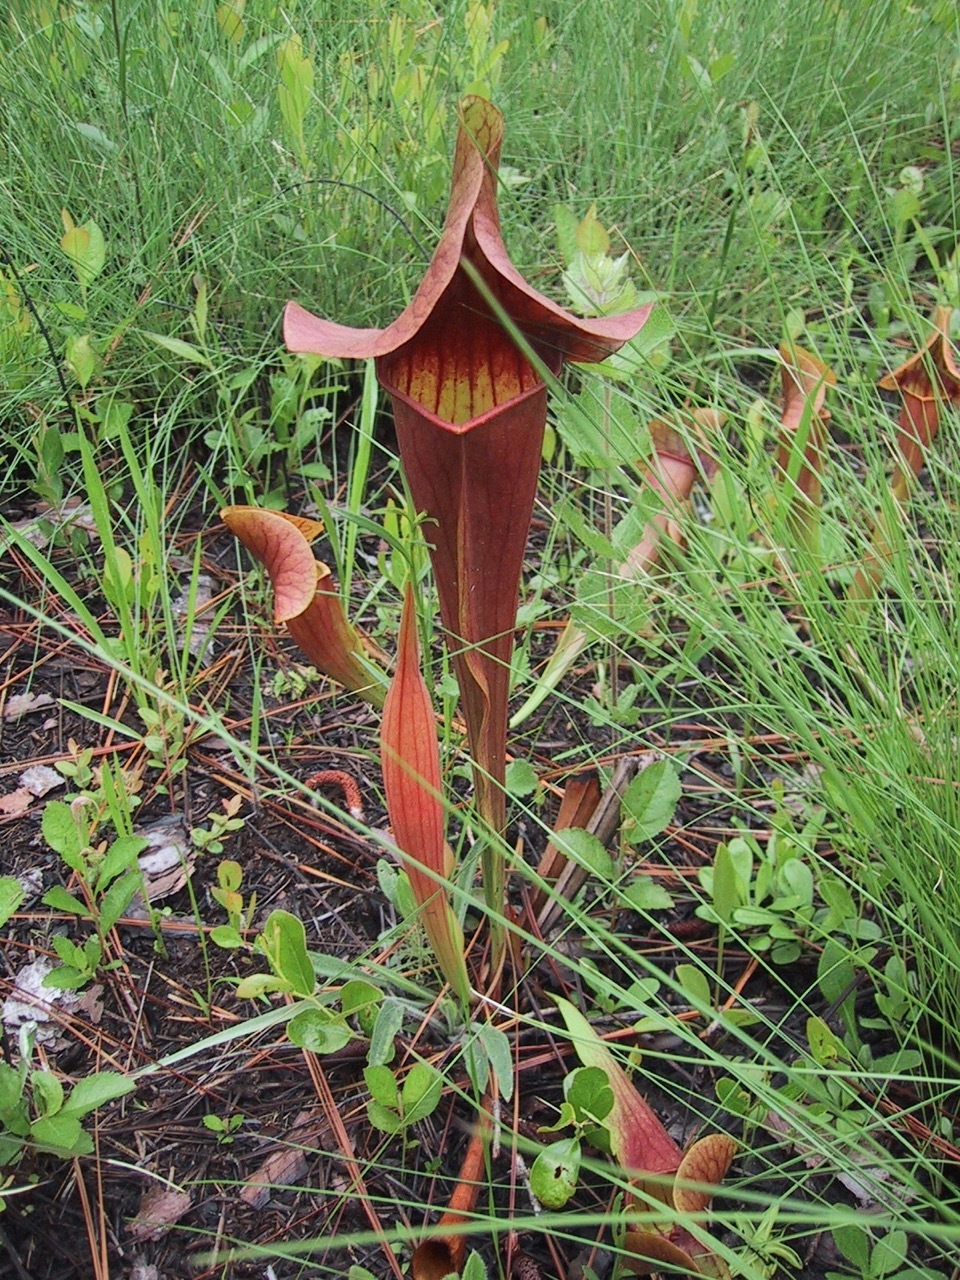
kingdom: Plantae
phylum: Tracheophyta
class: Magnoliopsida
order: Ericales
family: Sarraceniaceae
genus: Sarracenia
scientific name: Sarracenia catesbaei
